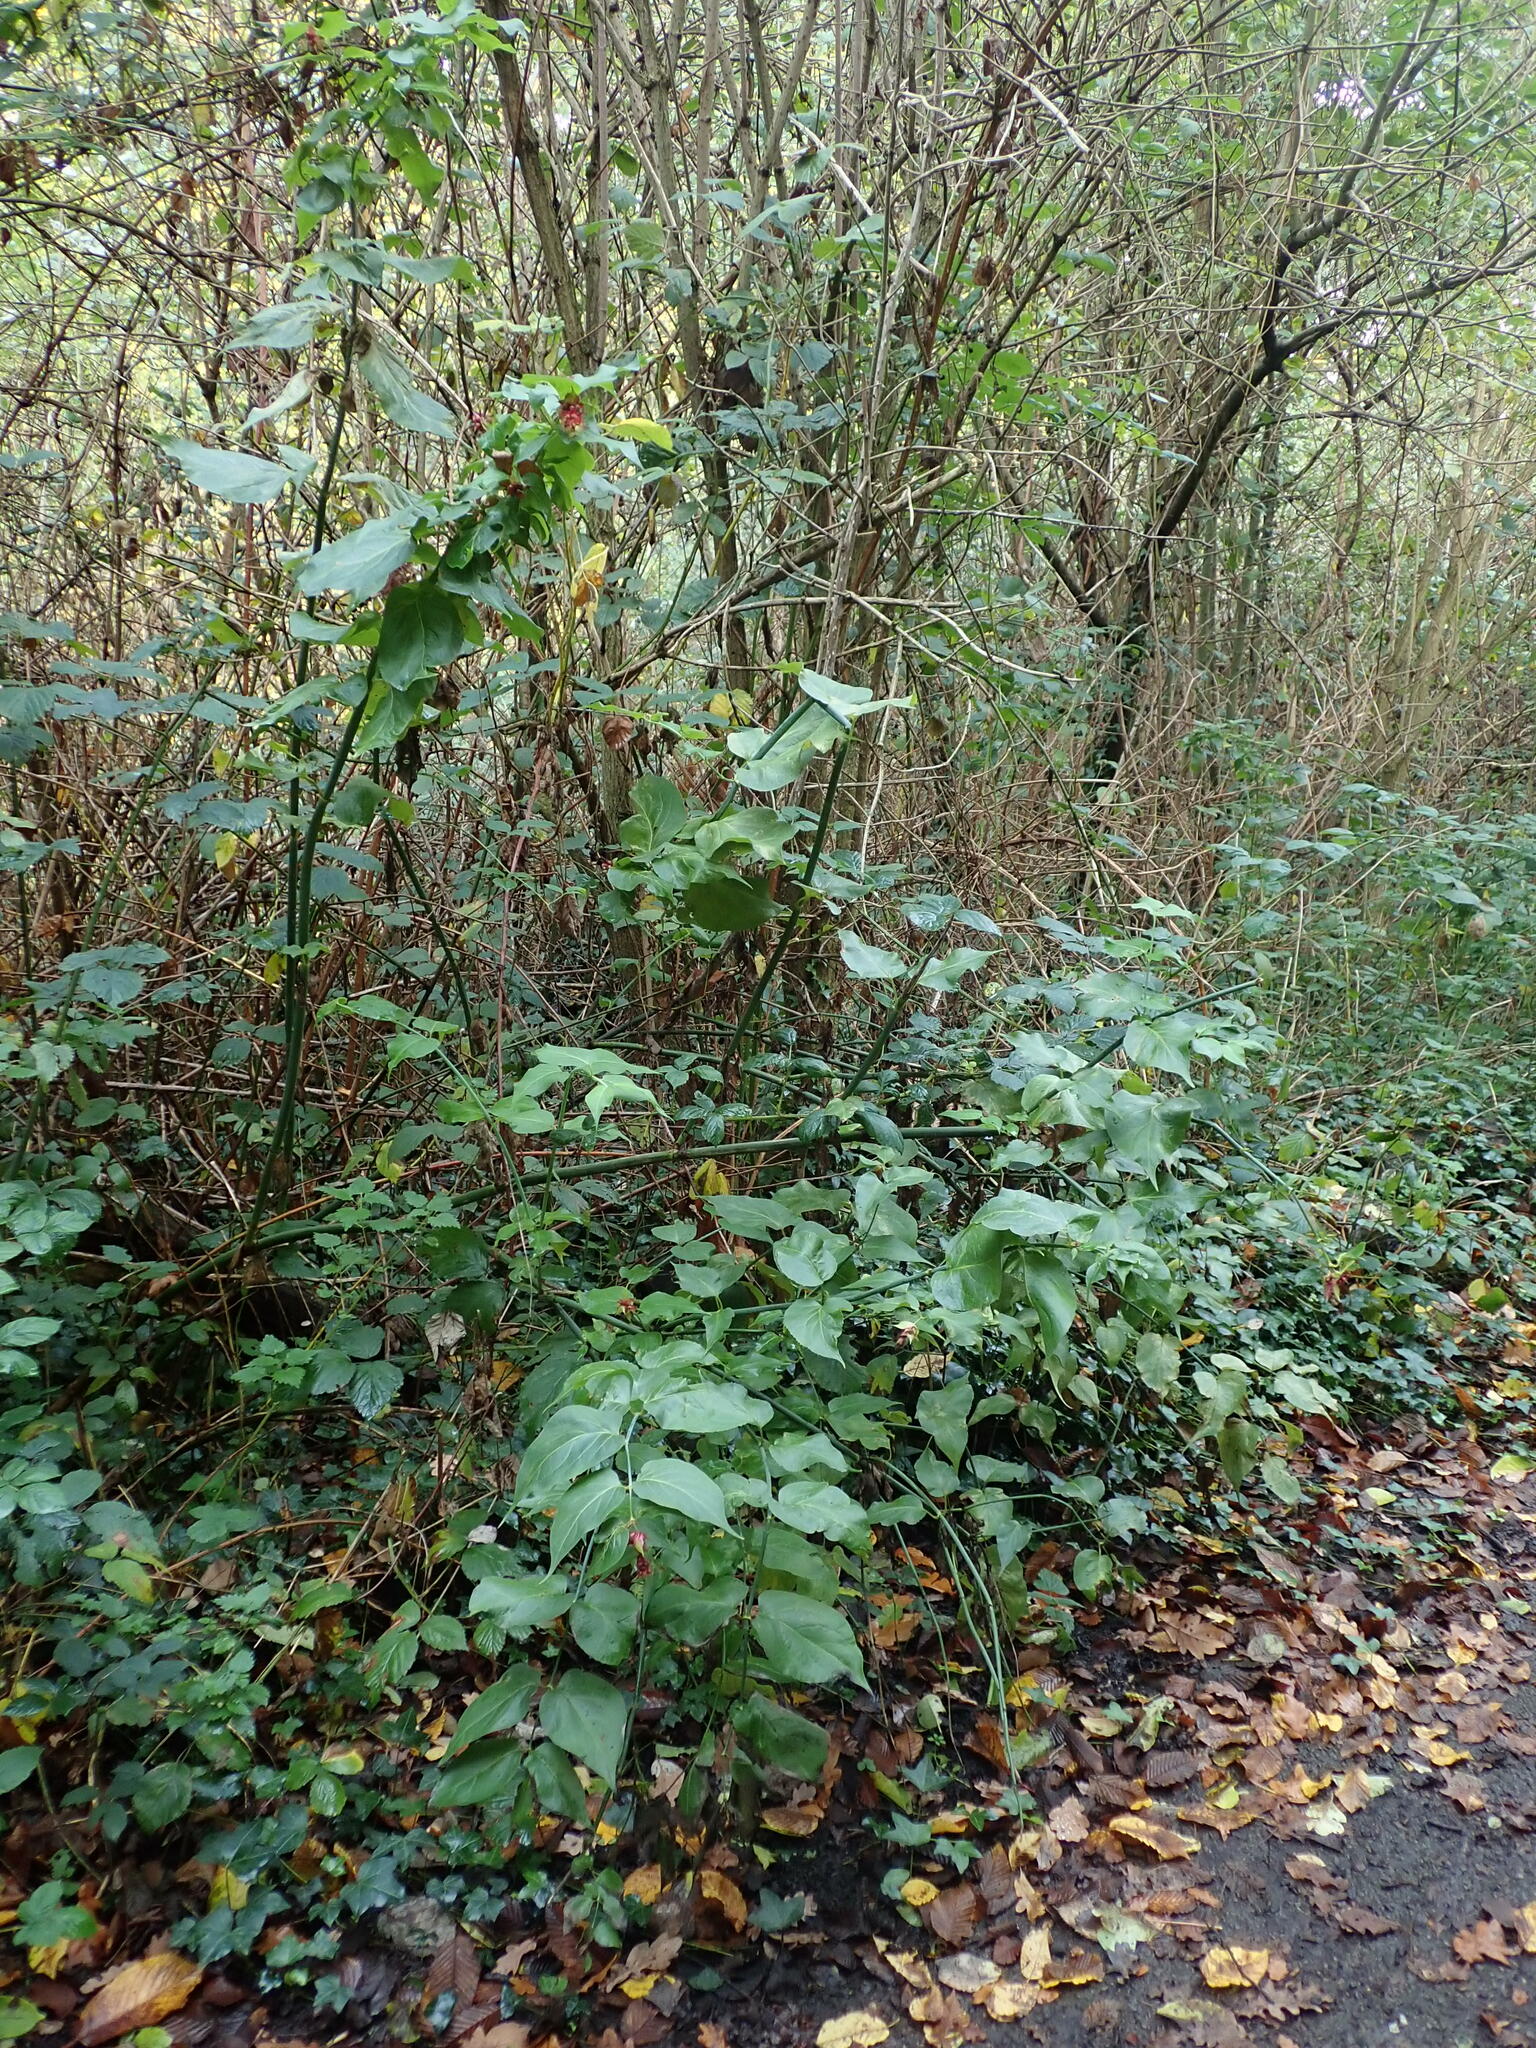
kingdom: Plantae
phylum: Tracheophyta
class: Magnoliopsida
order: Dipsacales
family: Caprifoliaceae
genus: Leycesteria
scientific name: Leycesteria formosa
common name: Himalayan honeysuckle
